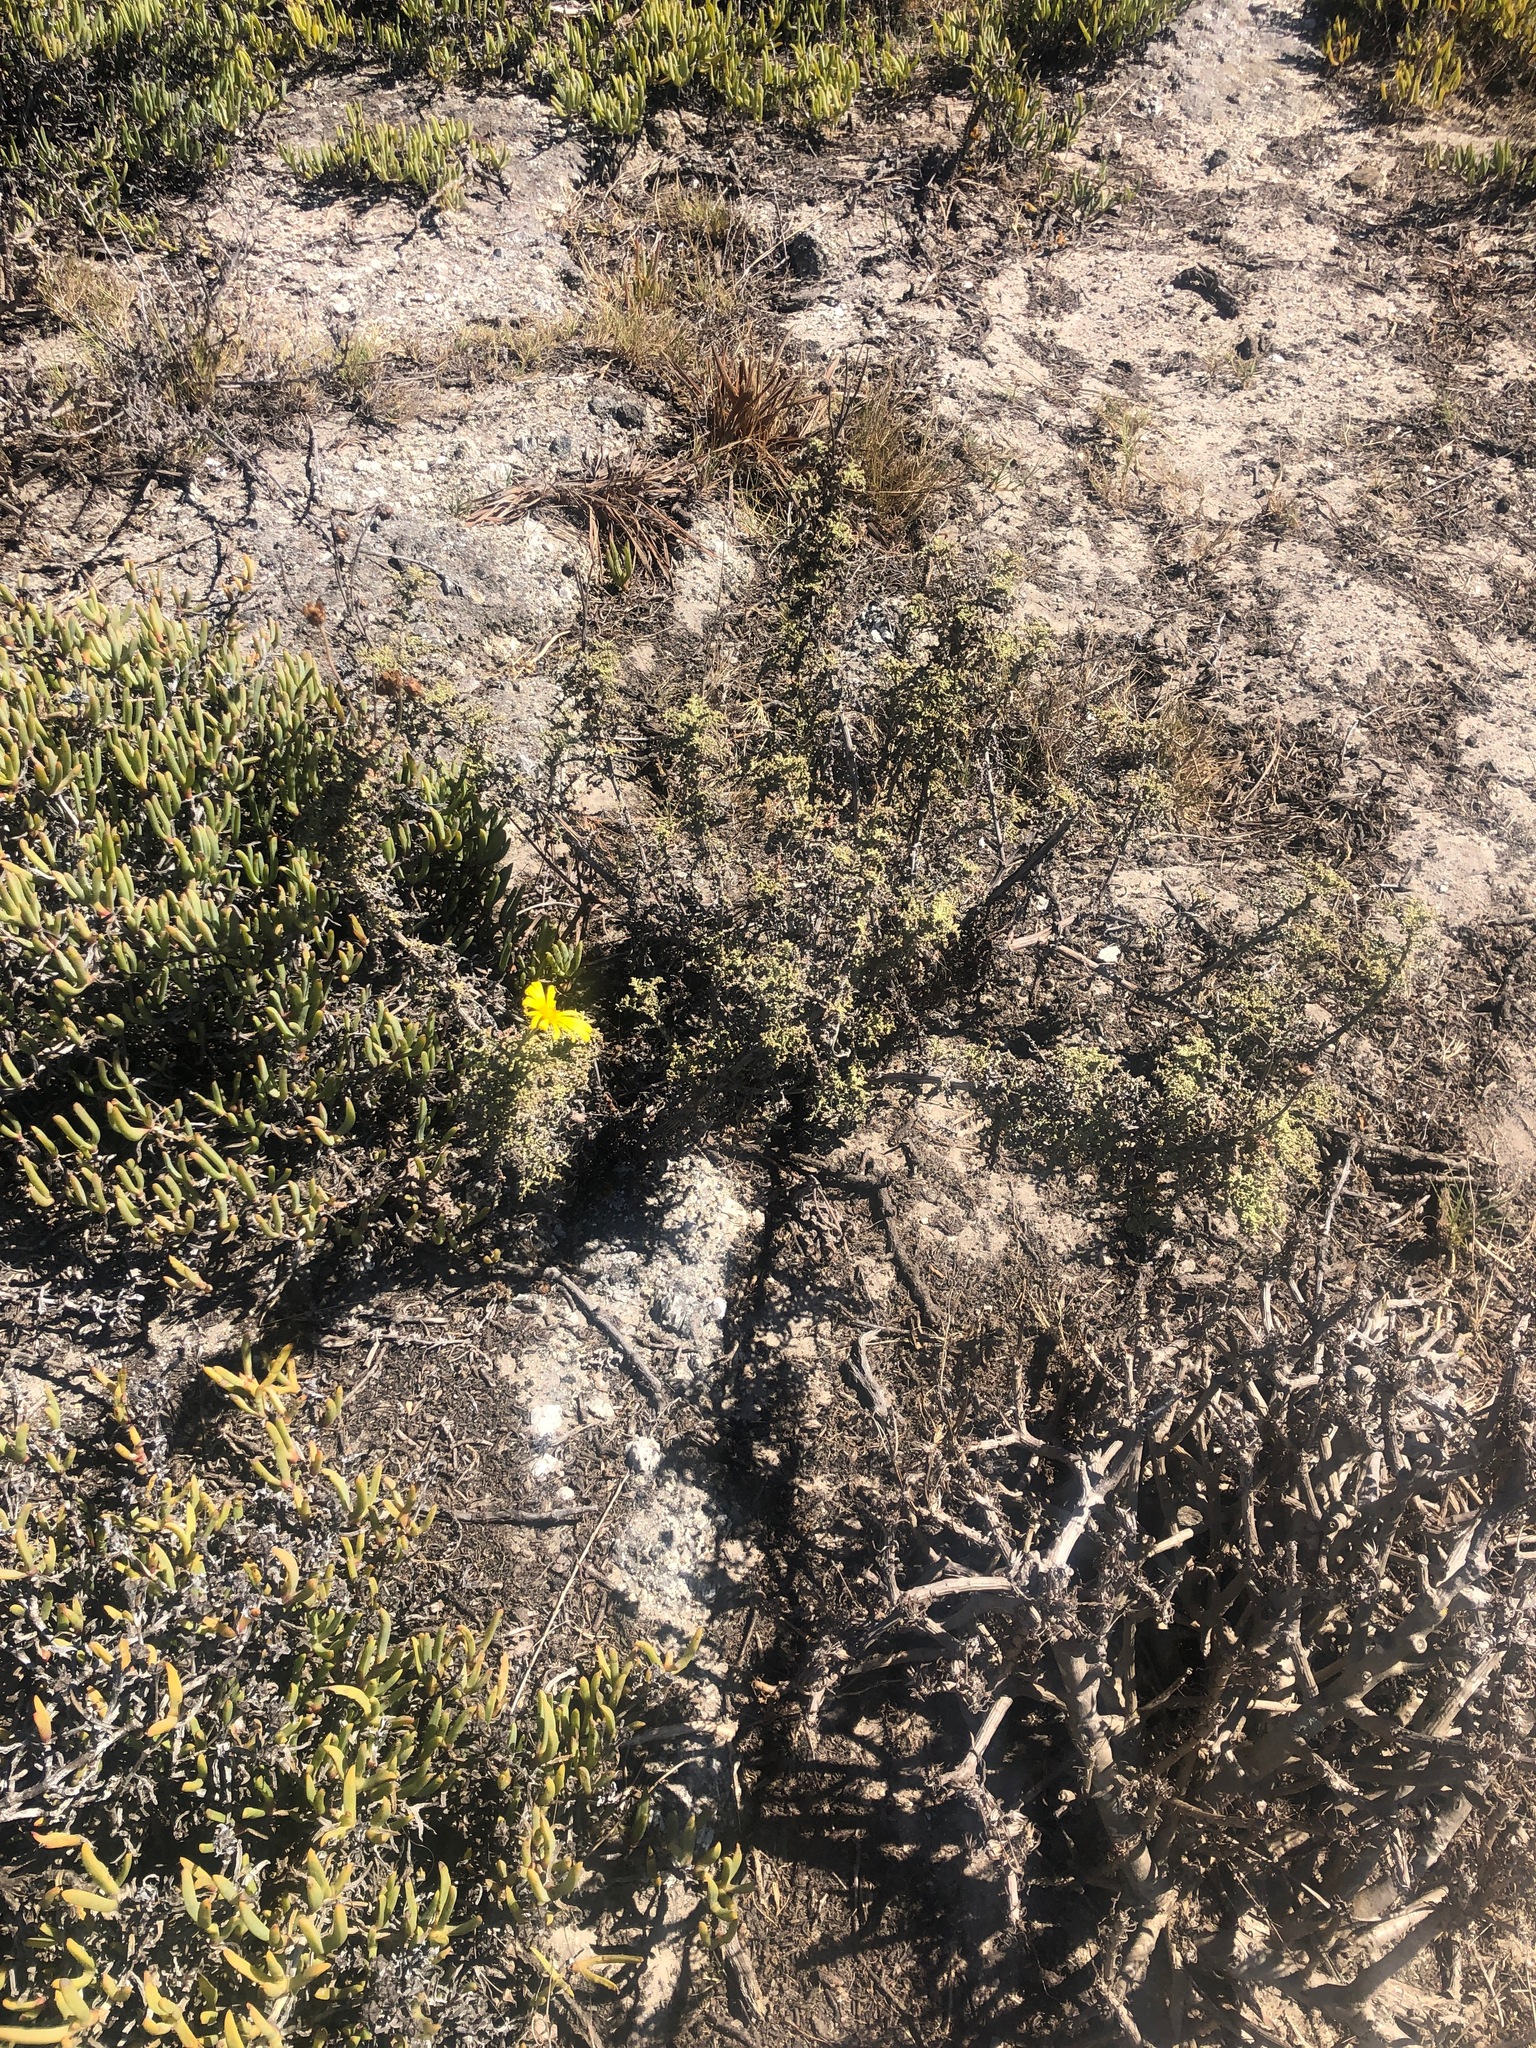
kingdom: Plantae
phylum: Tracheophyta
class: Magnoliopsida
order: Asterales
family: Asteraceae
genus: Arctotis
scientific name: Arctotis laciniata
